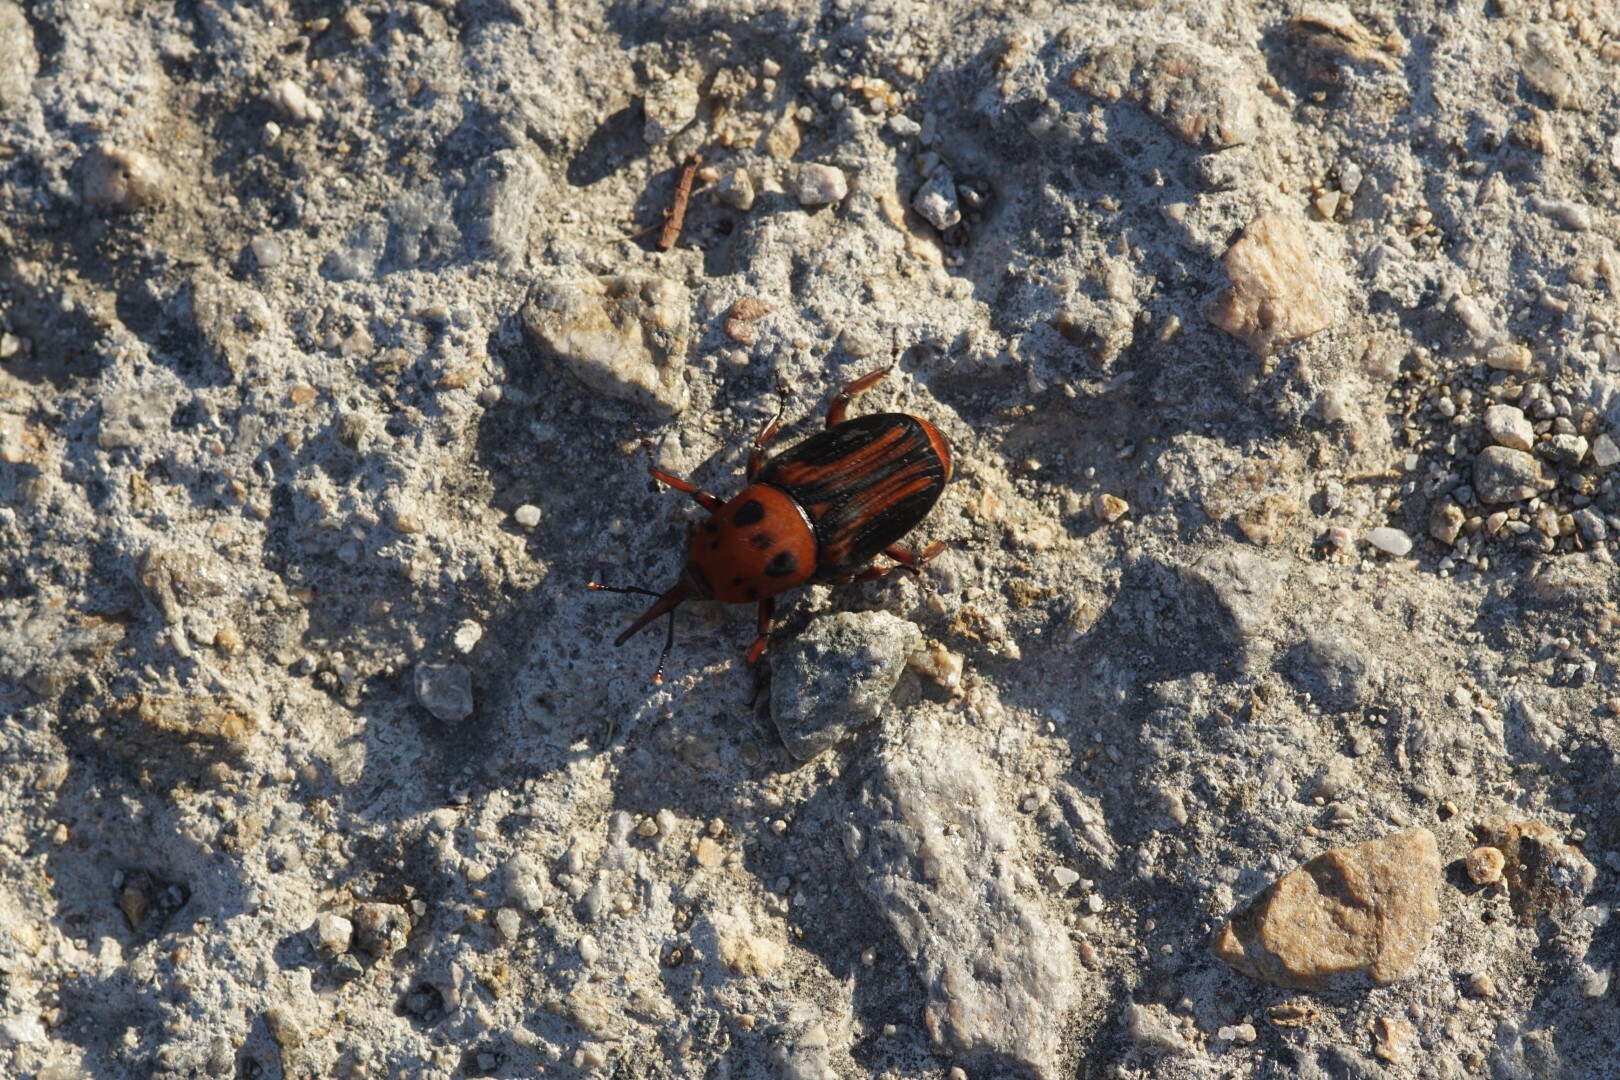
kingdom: Animalia
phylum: Arthropoda
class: Insecta
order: Coleoptera
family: Dryophthoridae
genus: Rhynchophorus
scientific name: Rhynchophorus ferrugineus
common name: Red palm weevil
